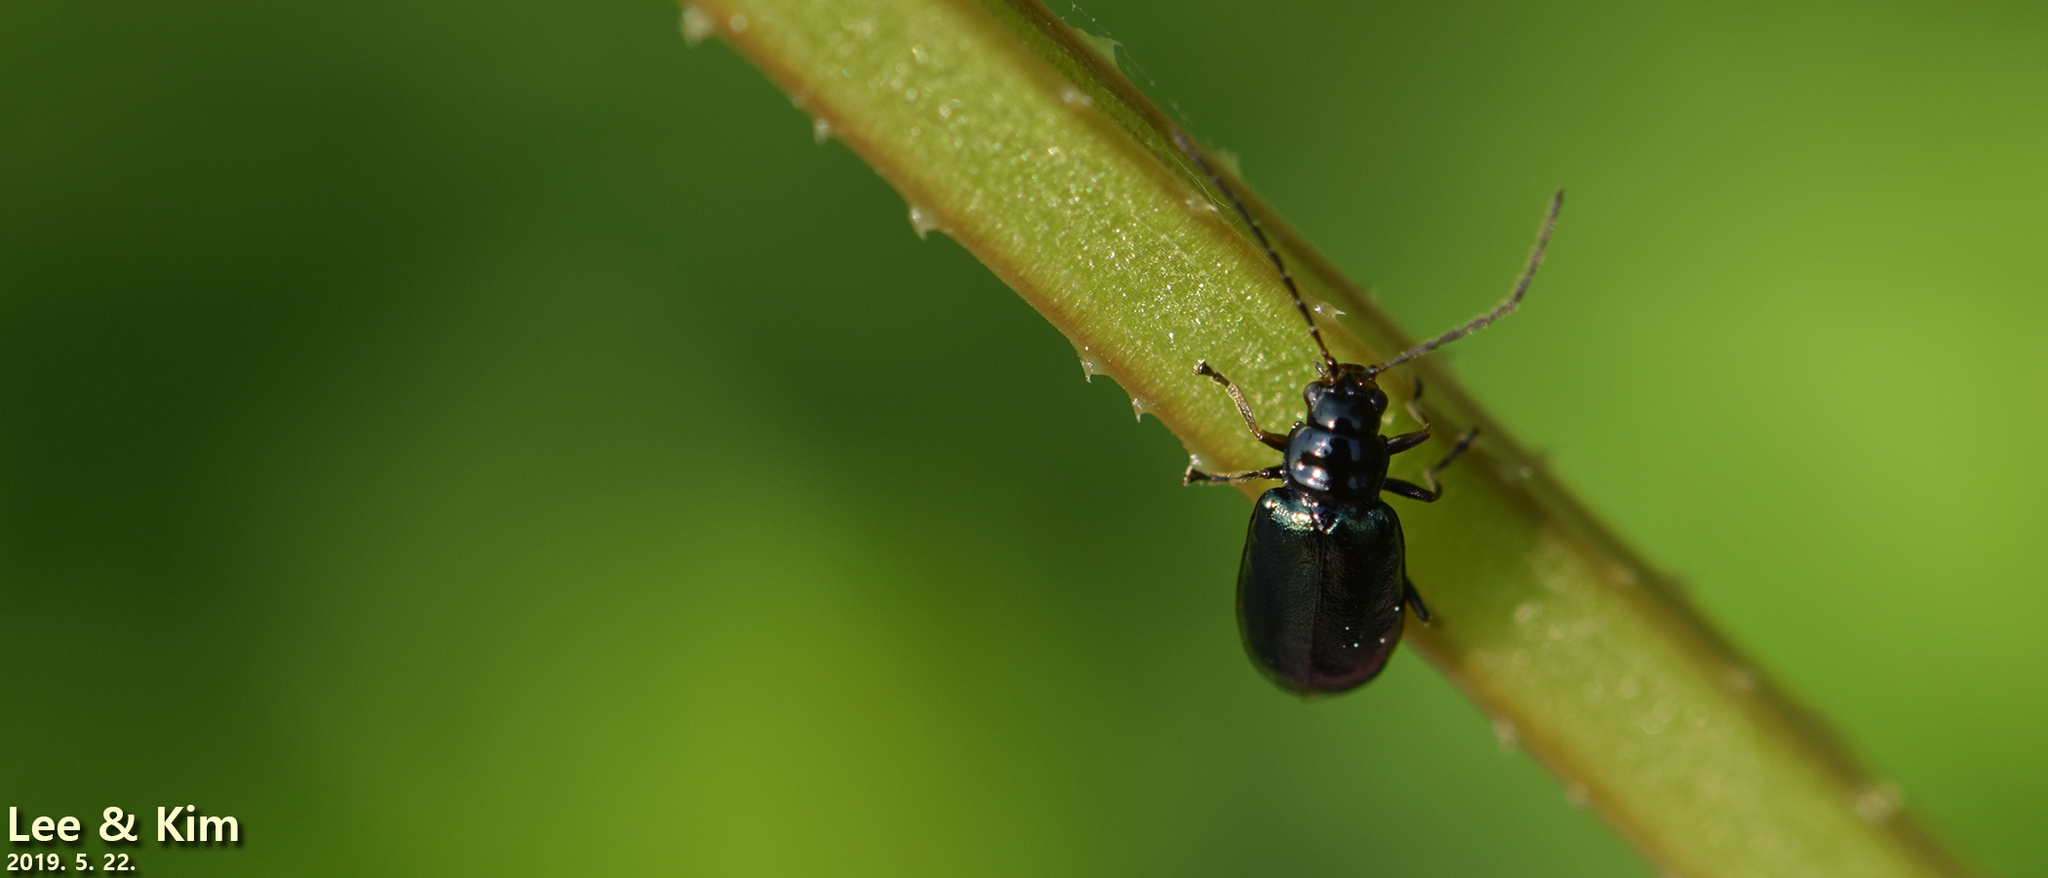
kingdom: Animalia
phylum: Arthropoda
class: Insecta
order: Coleoptera
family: Chrysomelidae
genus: Fleutiauxia
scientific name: Fleutiauxia armata
